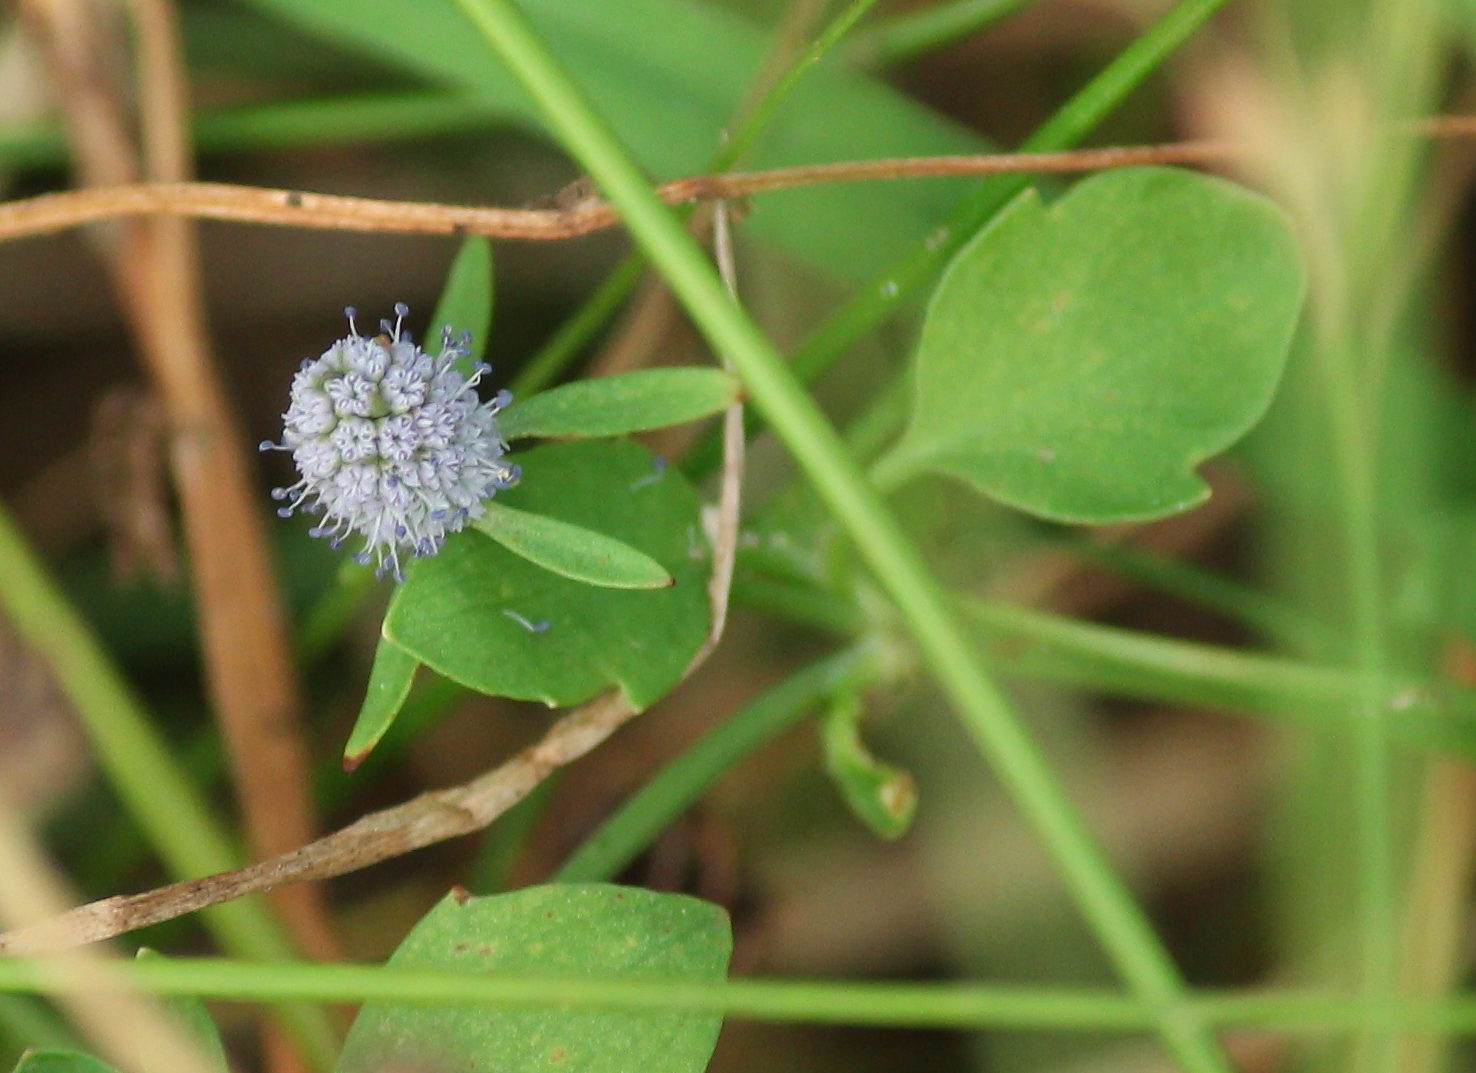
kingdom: Plantae
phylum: Tracheophyta
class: Magnoliopsida
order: Apiales
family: Apiaceae
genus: Eryngium
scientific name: Eryngium prostratum
